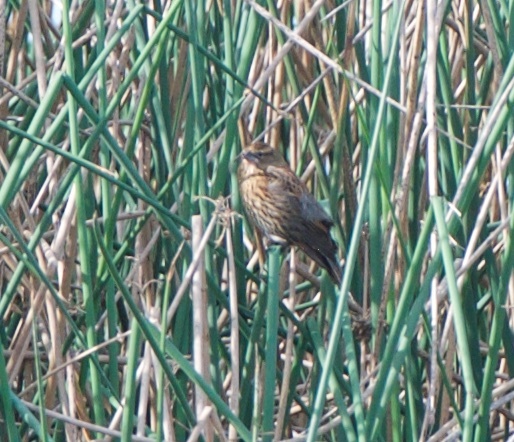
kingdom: Animalia
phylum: Chordata
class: Aves
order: Passeriformes
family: Icteridae
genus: Agelaius
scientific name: Agelaius phoeniceus
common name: Red-winged blackbird
